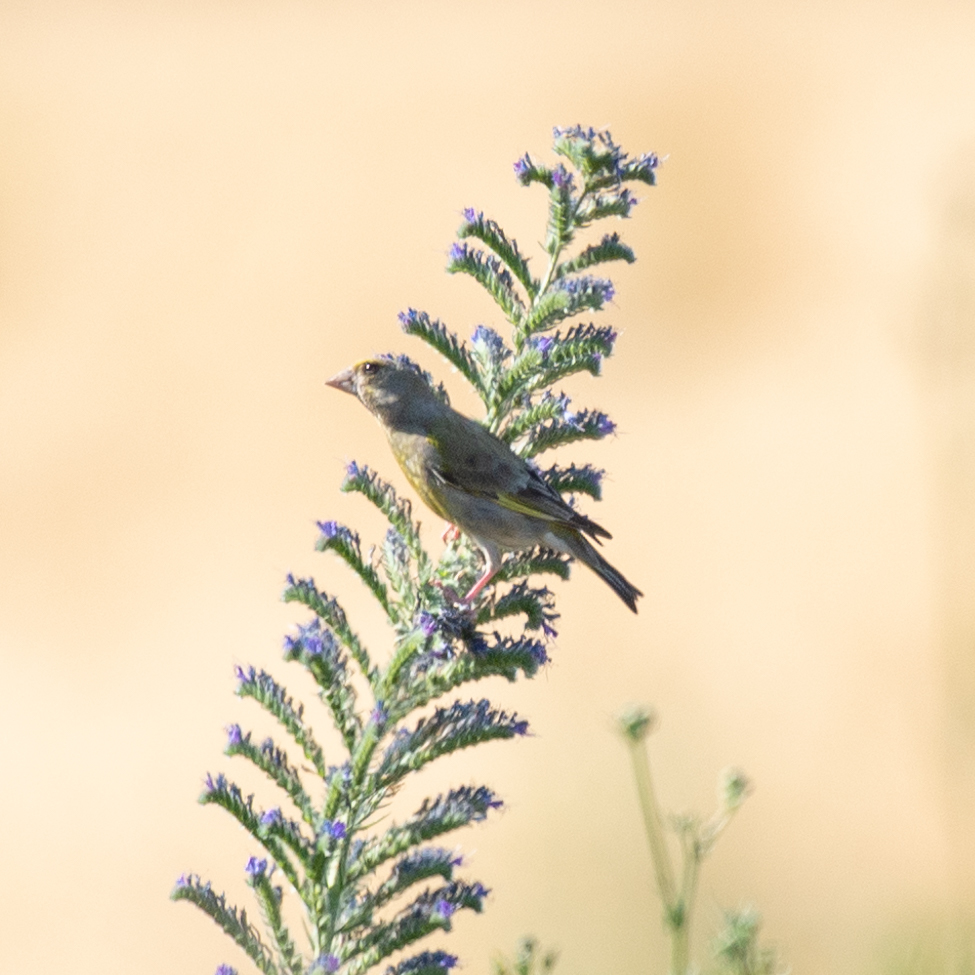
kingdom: Plantae
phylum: Tracheophyta
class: Liliopsida
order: Poales
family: Poaceae
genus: Chloris
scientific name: Chloris chloris
